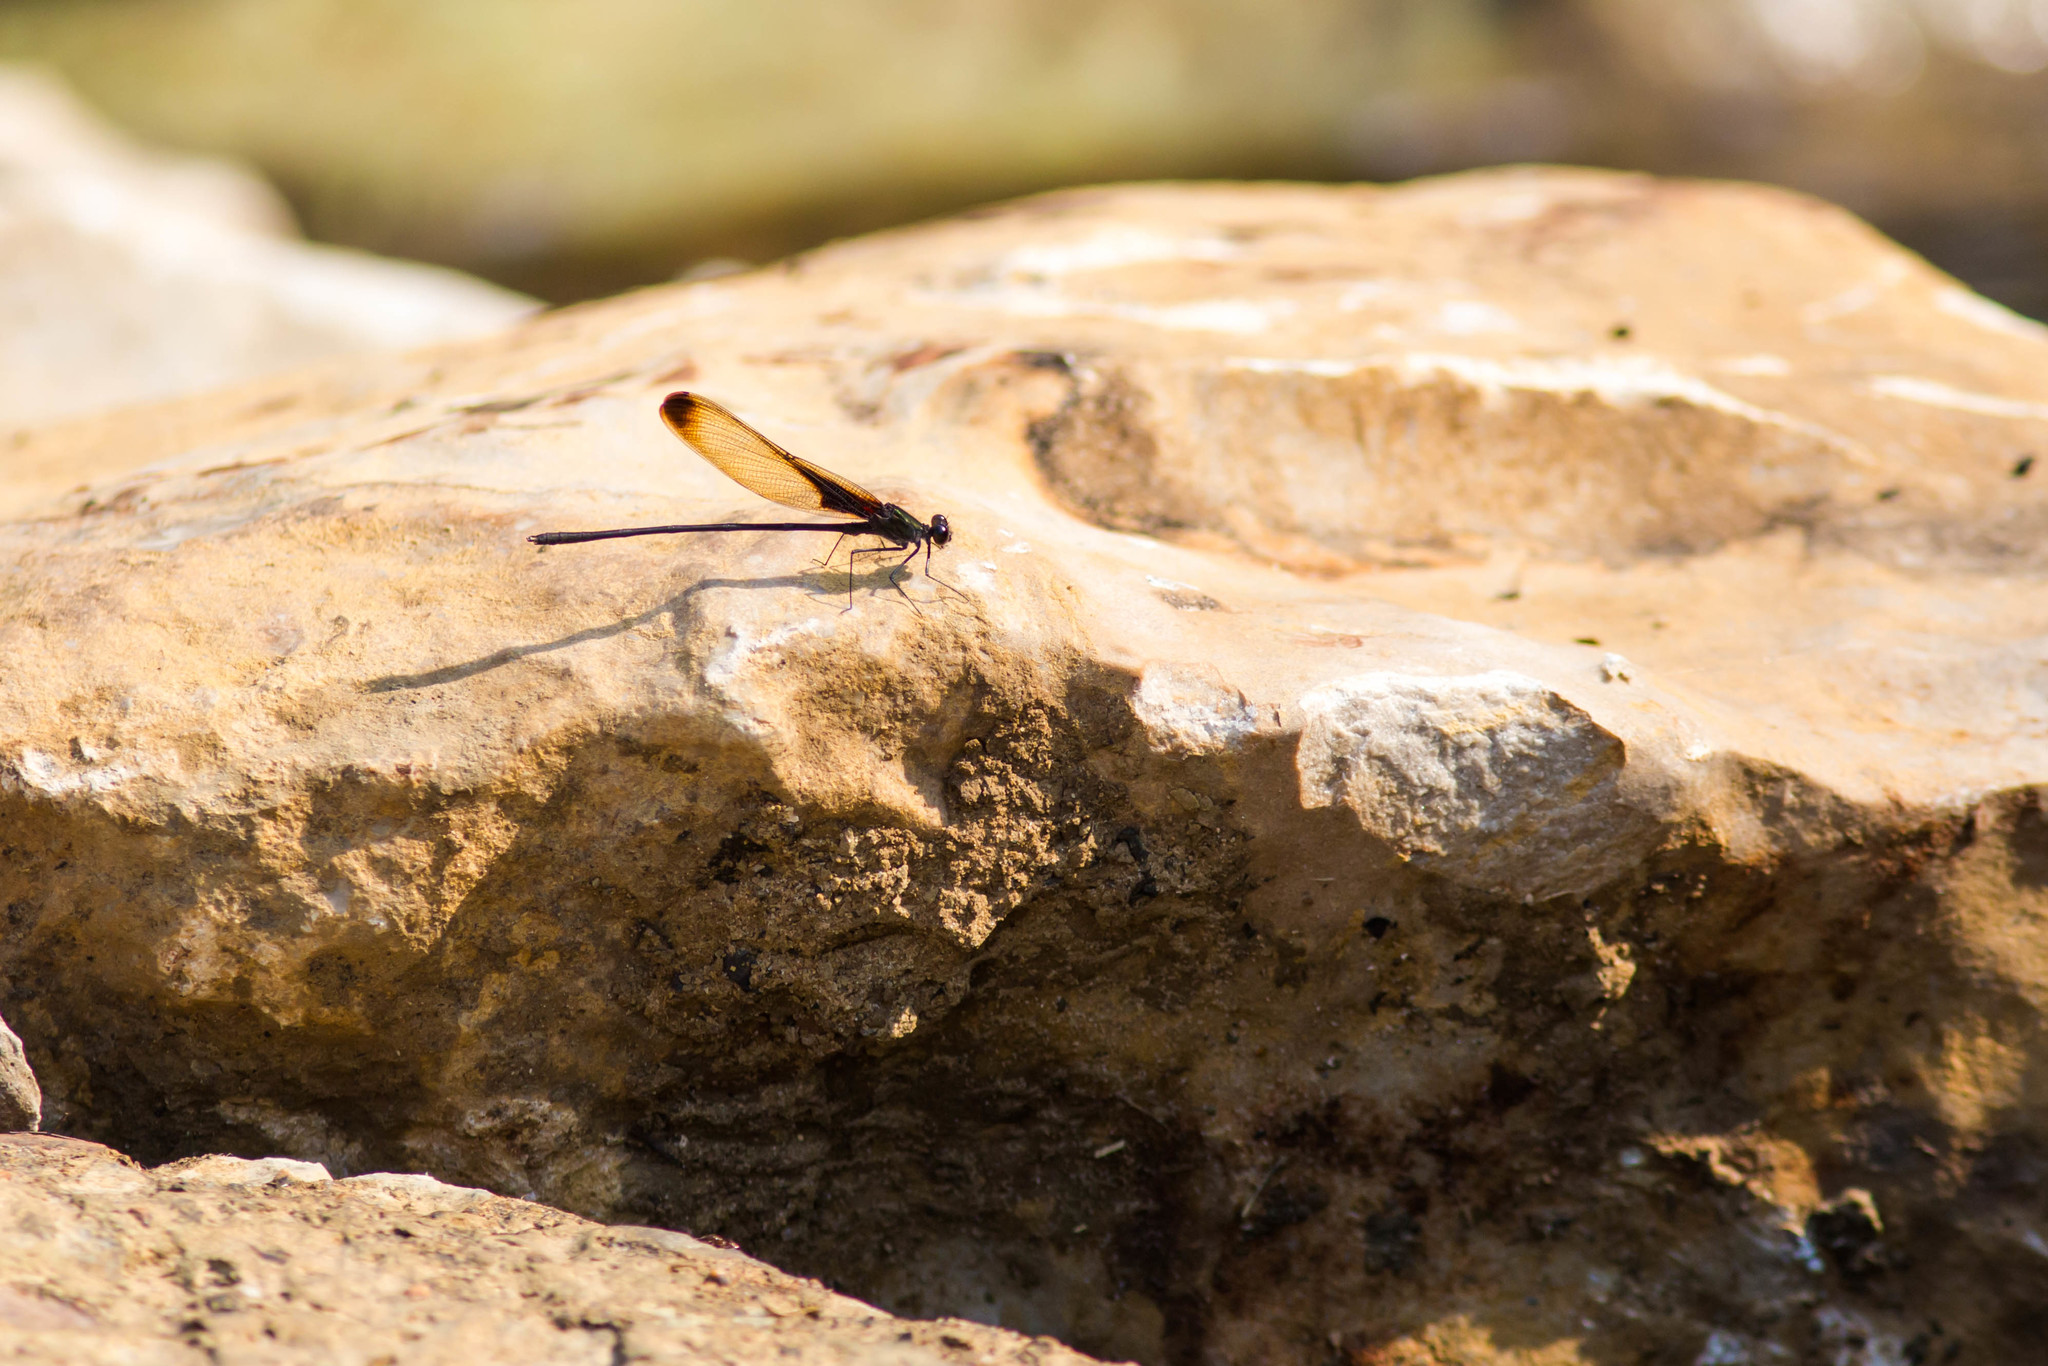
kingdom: Animalia
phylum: Arthropoda
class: Insecta
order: Odonata
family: Calopterygidae
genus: Hetaerina
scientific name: Hetaerina titia
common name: Smoky rubyspot
